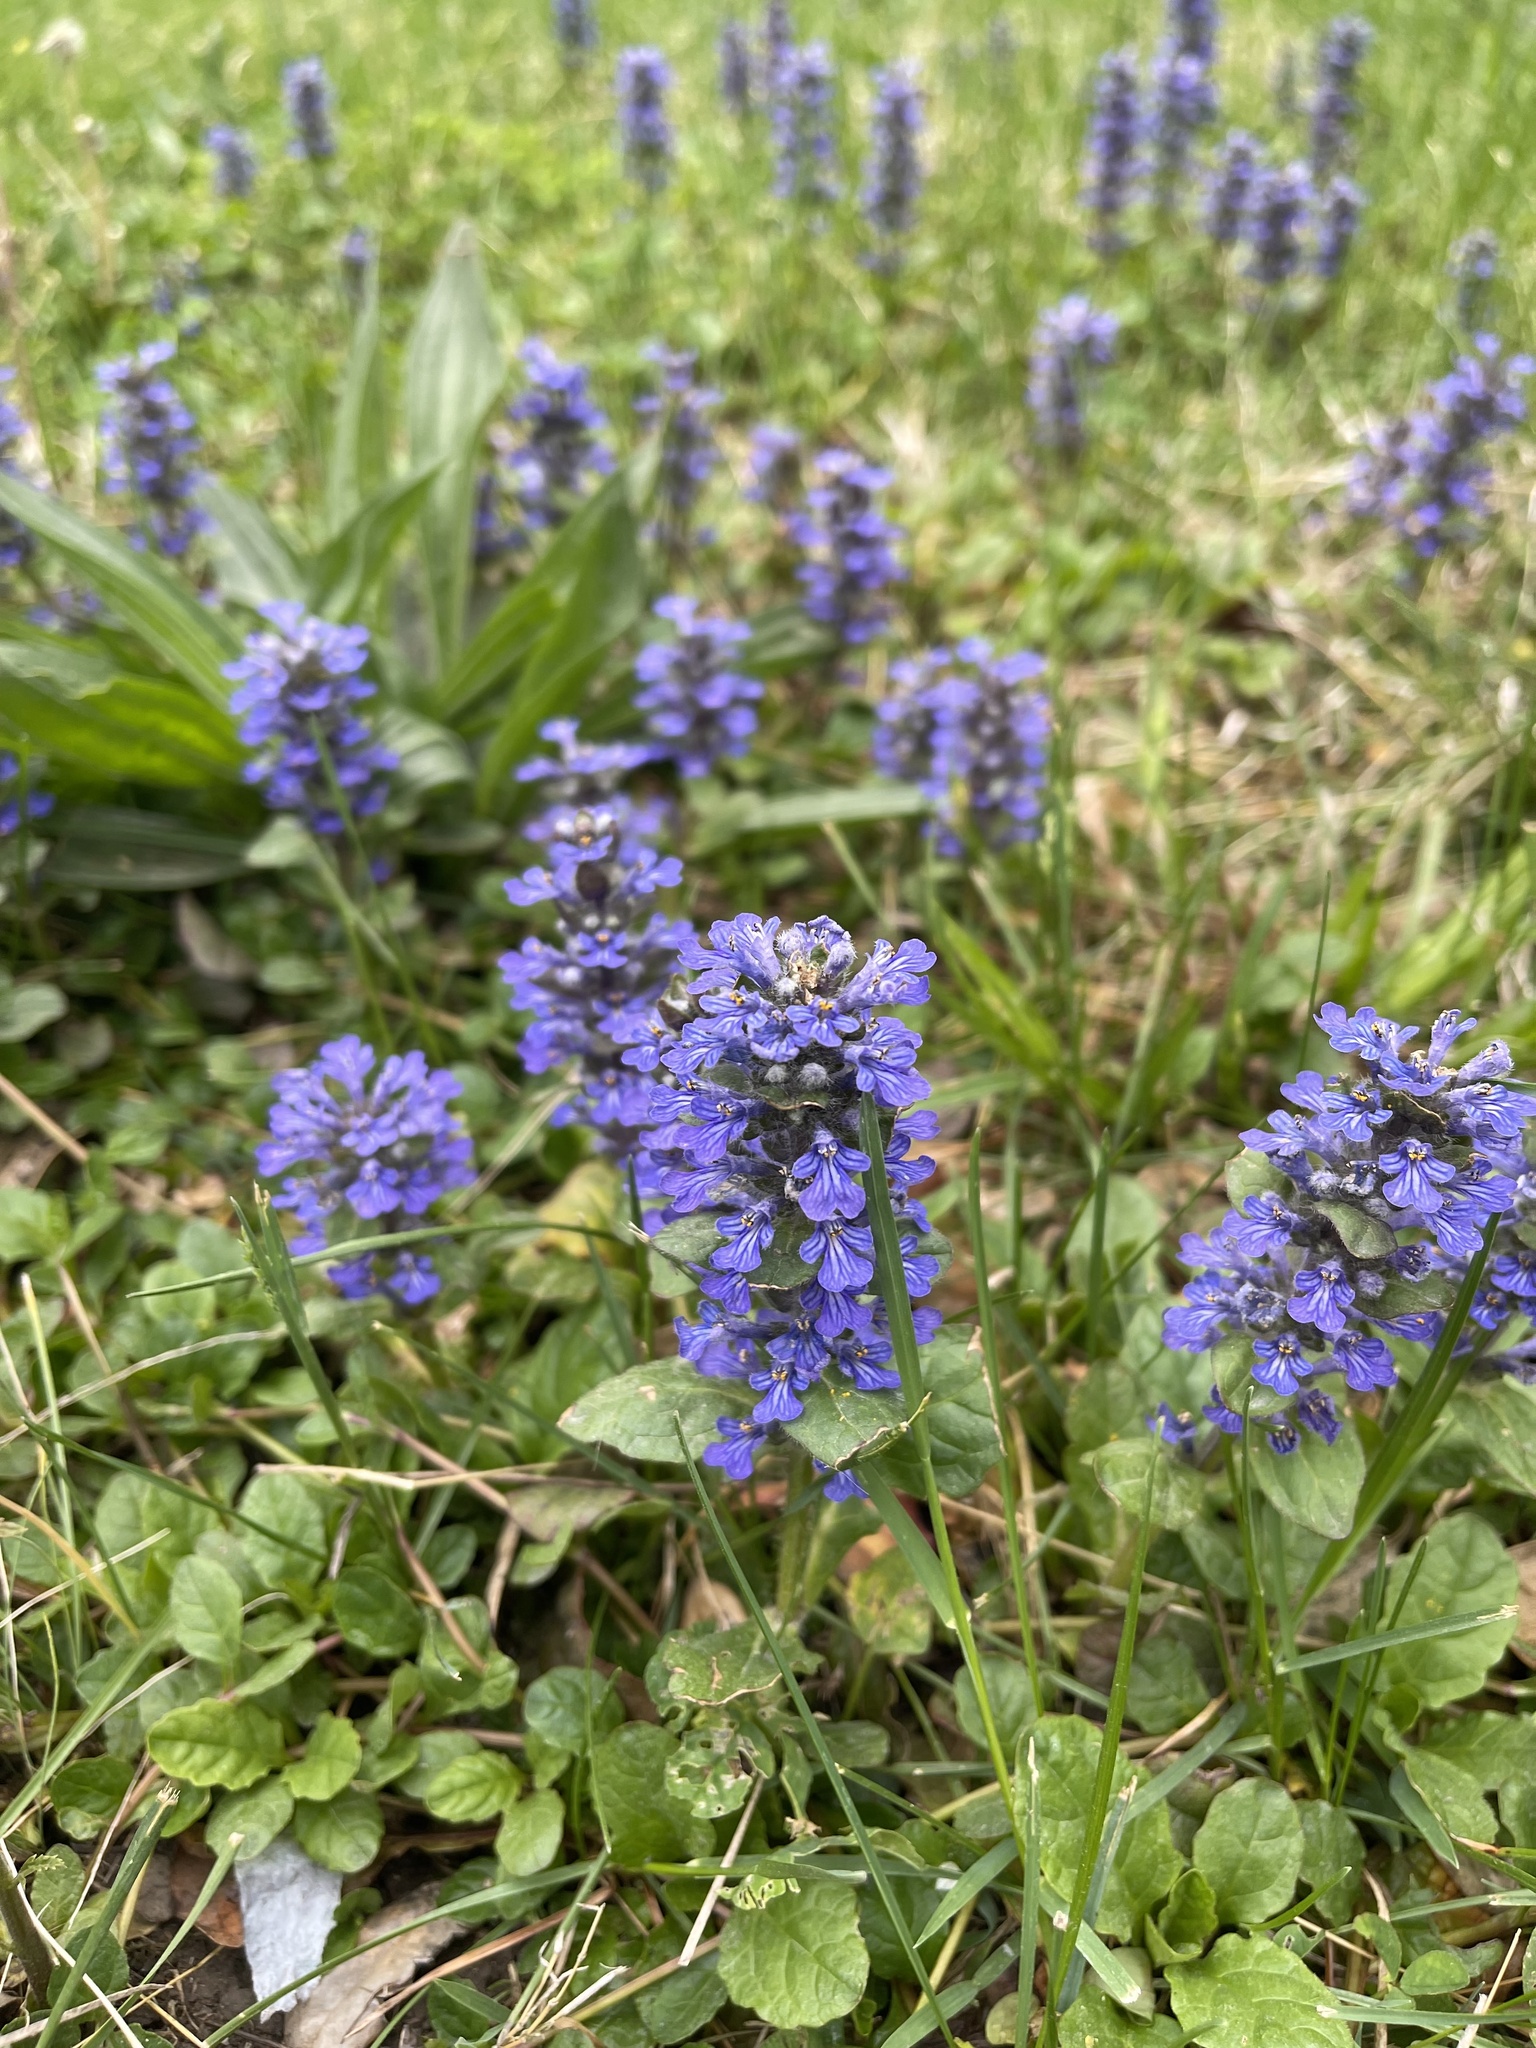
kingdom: Plantae
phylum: Tracheophyta
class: Magnoliopsida
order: Lamiales
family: Lamiaceae
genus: Ajuga
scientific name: Ajuga reptans
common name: Bugle
